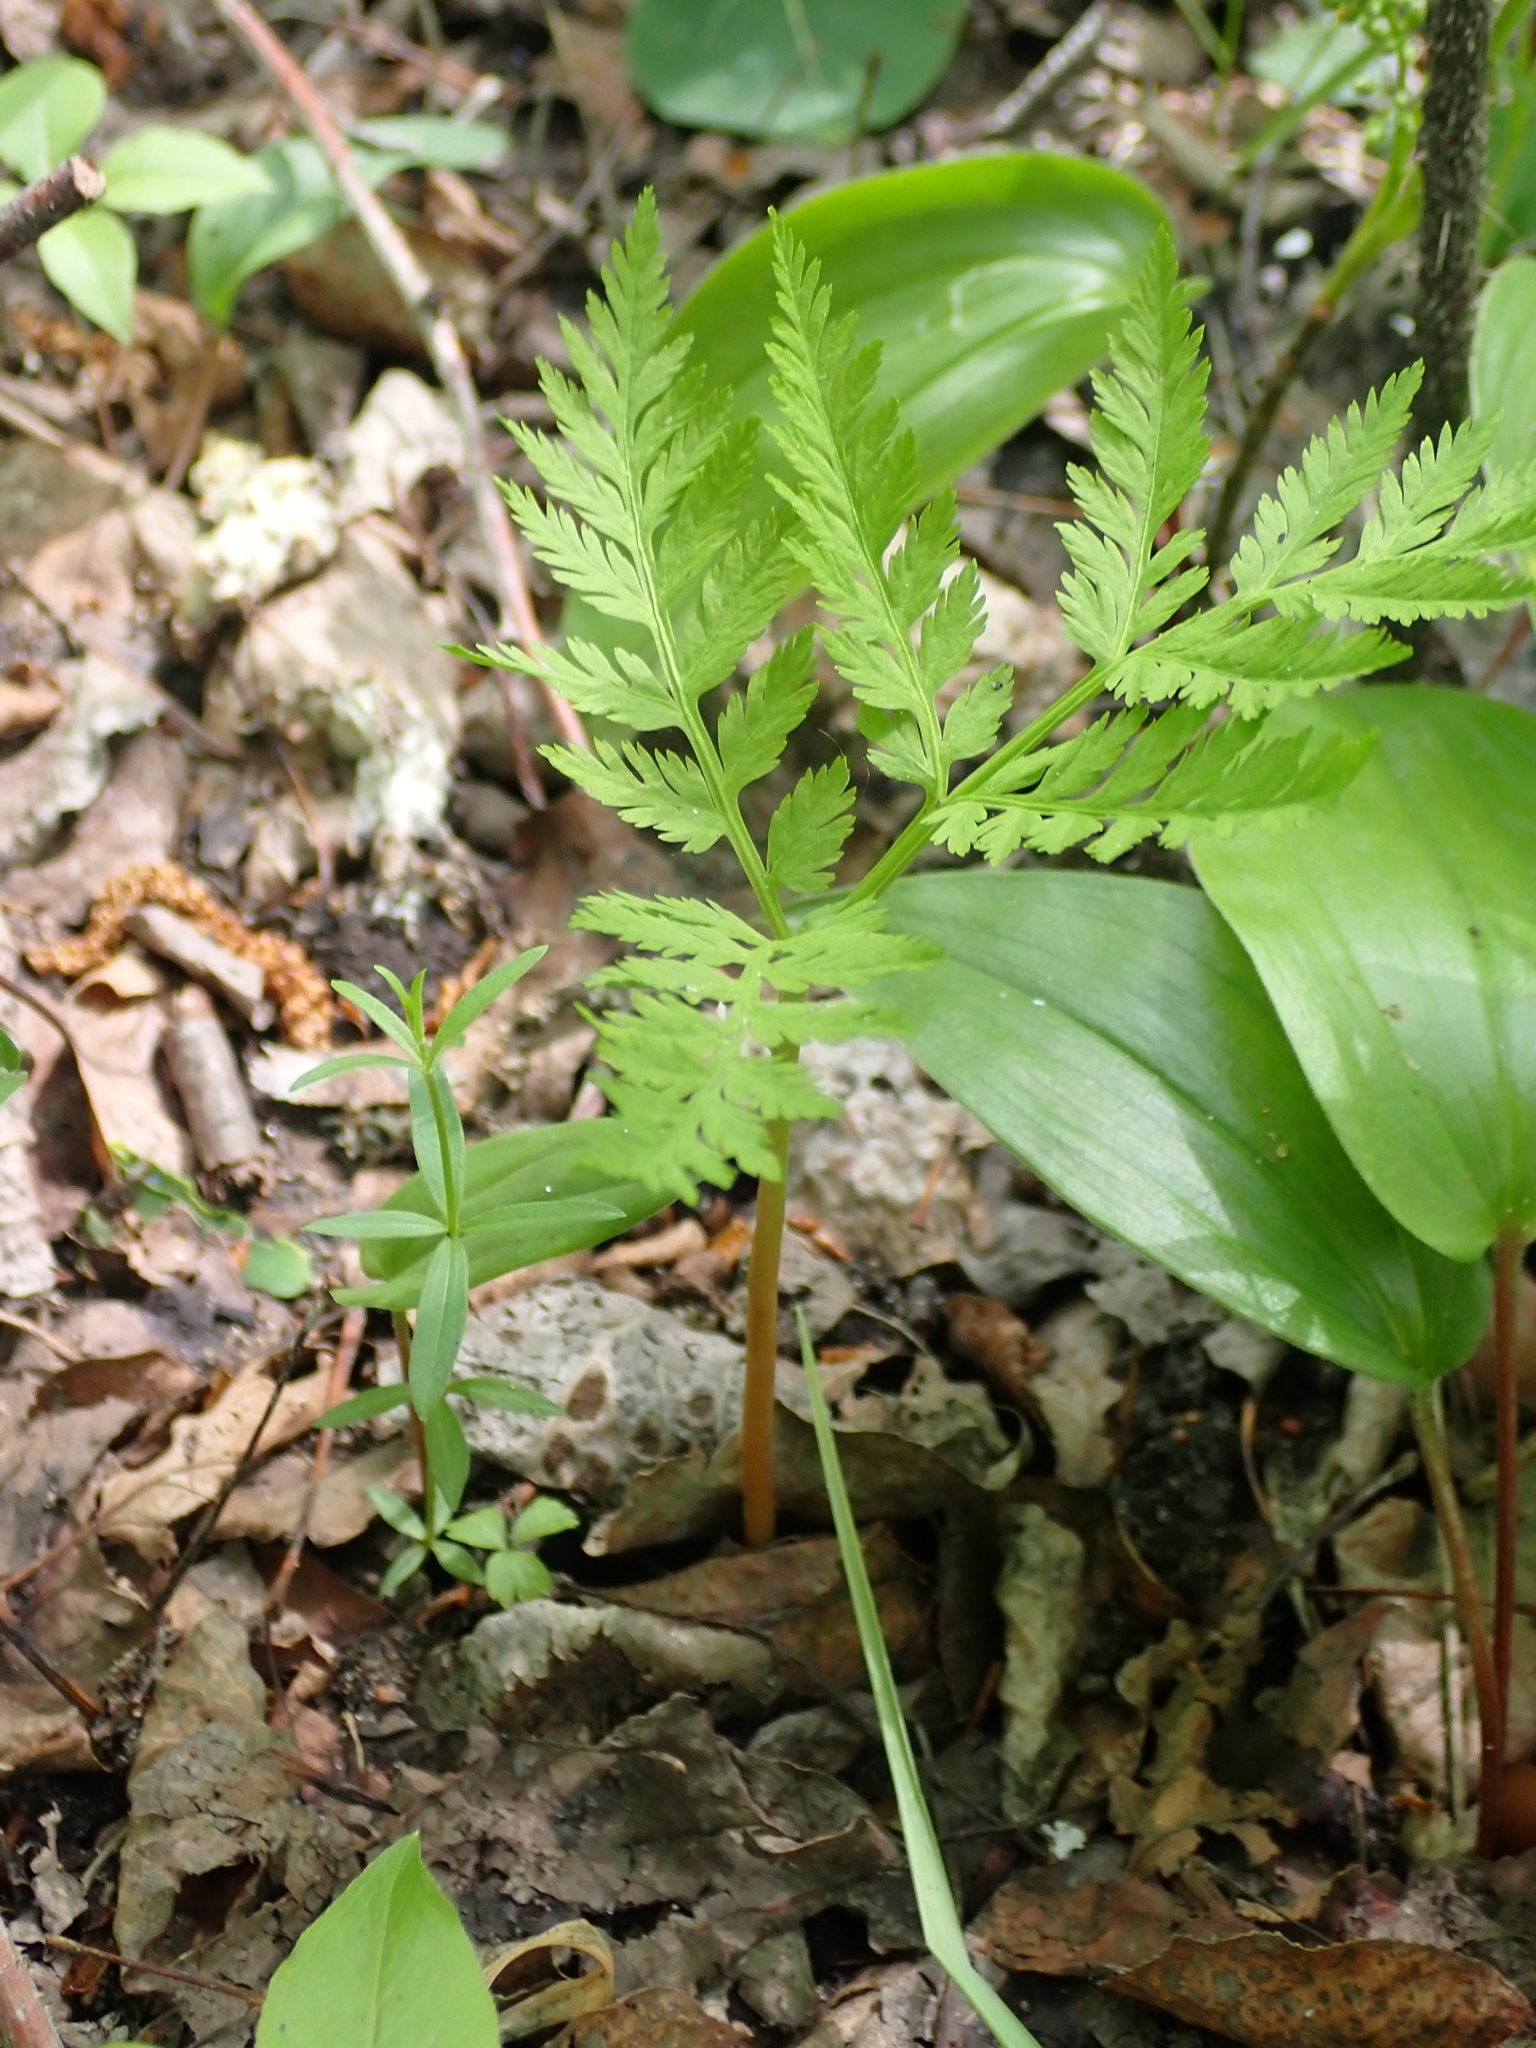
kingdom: Plantae
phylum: Tracheophyta
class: Polypodiopsida
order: Ophioglossales
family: Ophioglossaceae
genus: Botrypus
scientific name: Botrypus virginianus
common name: Common grapefern
